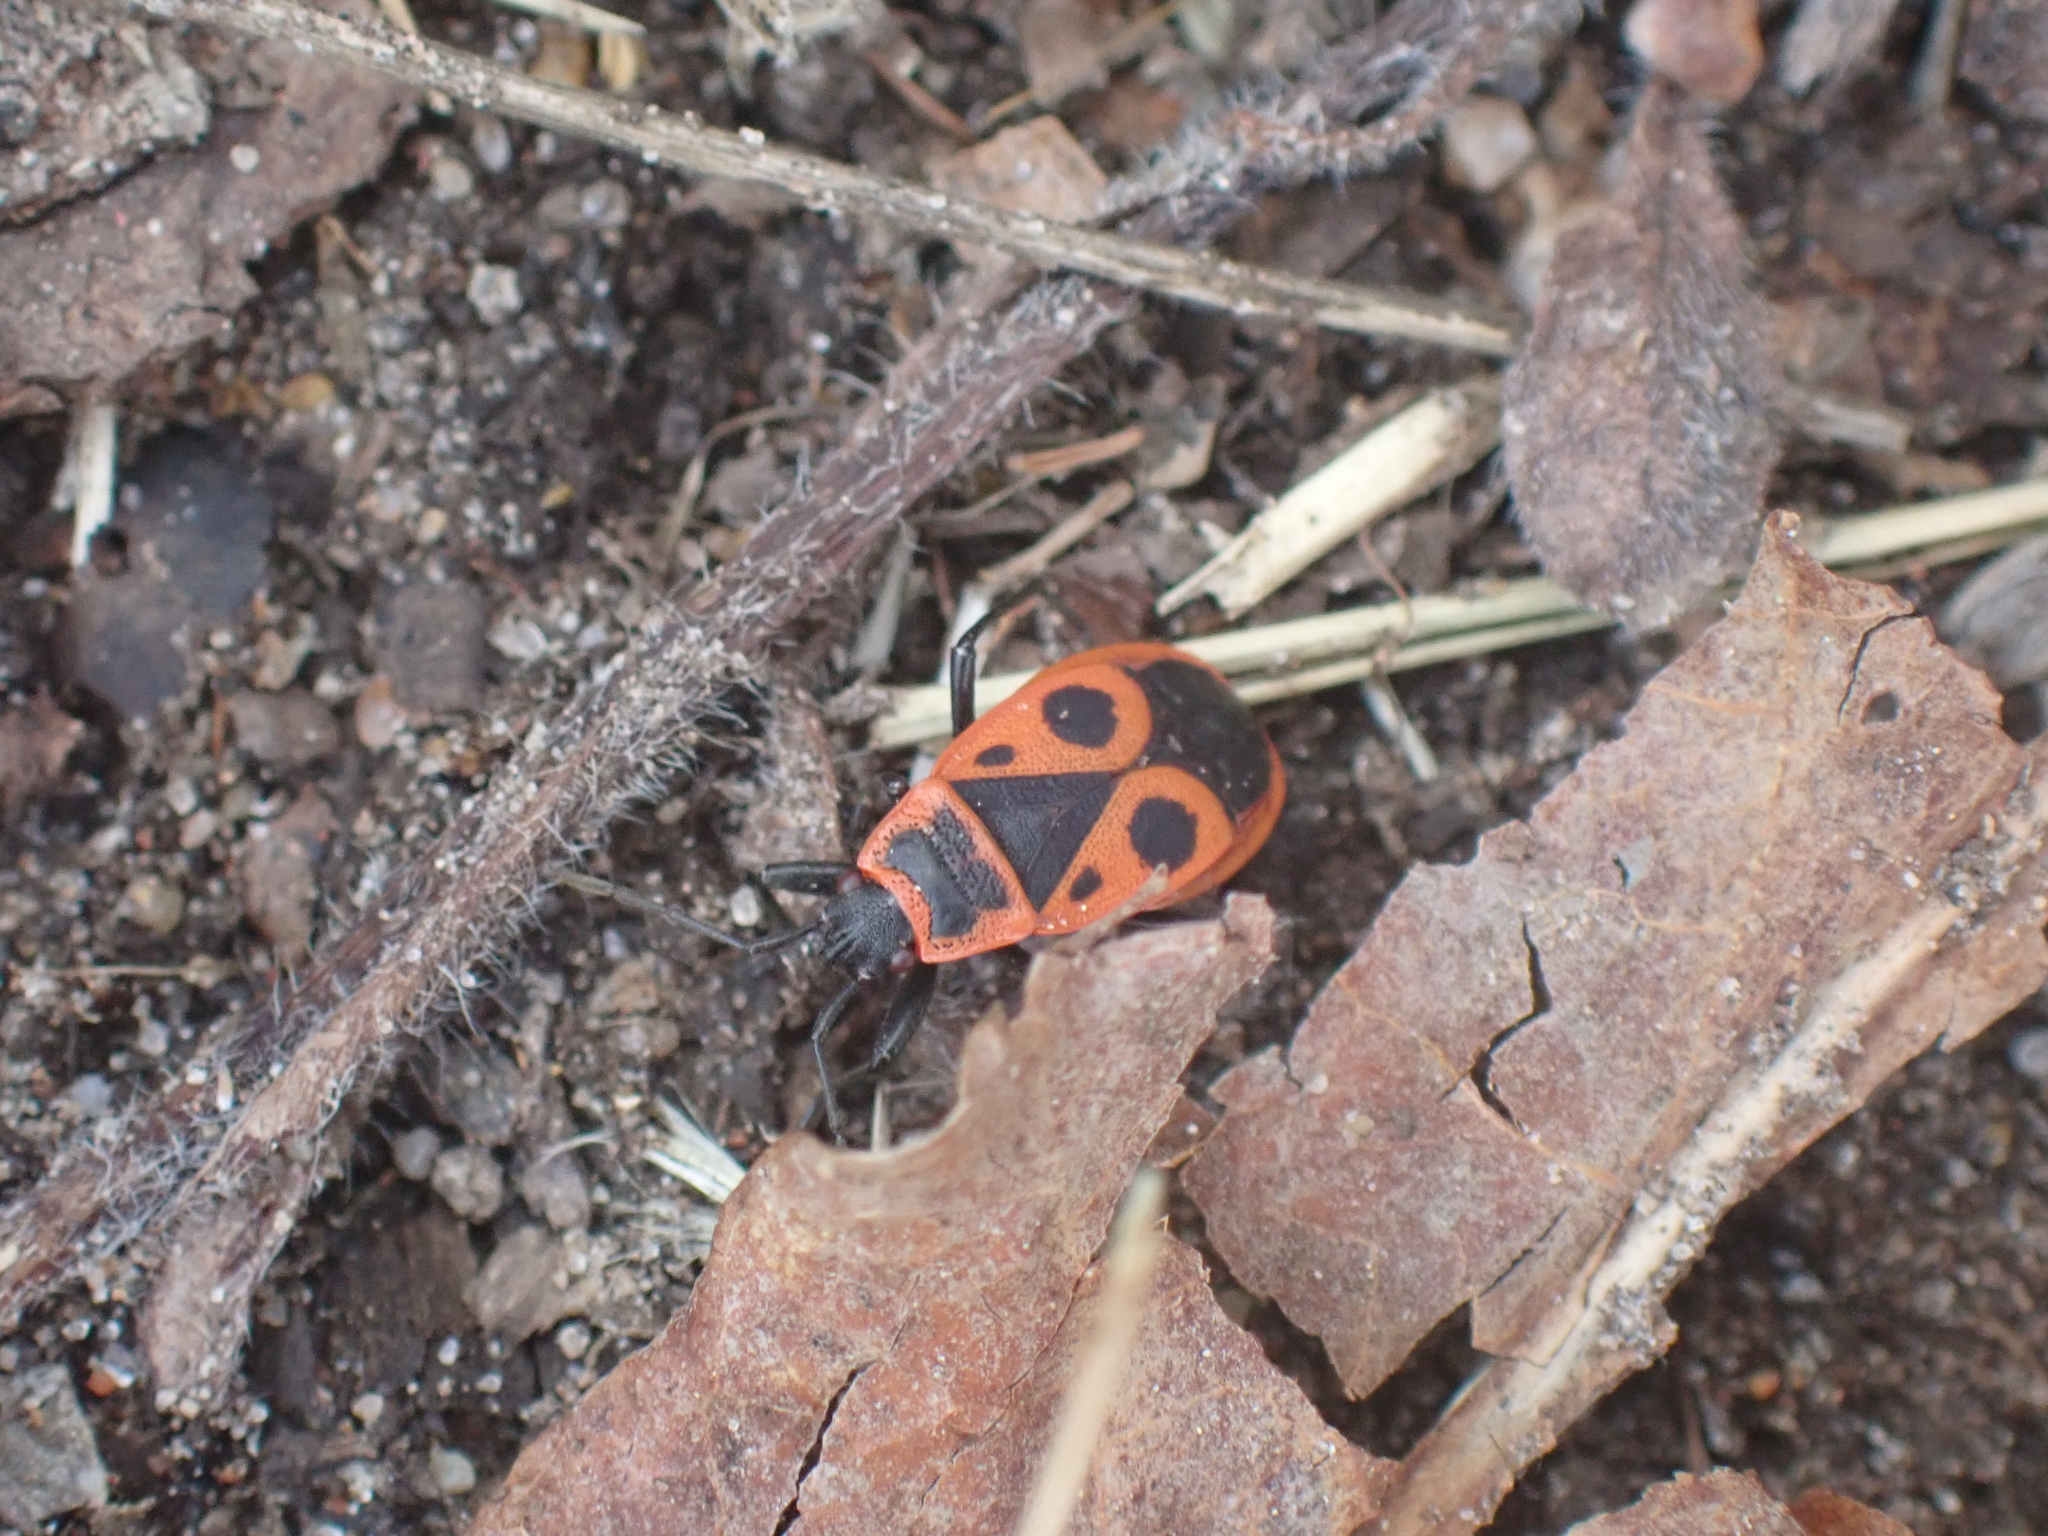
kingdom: Animalia
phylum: Arthropoda
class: Insecta
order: Hemiptera
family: Pyrrhocoridae
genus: Pyrrhocoris
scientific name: Pyrrhocoris apterus
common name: Firebug
